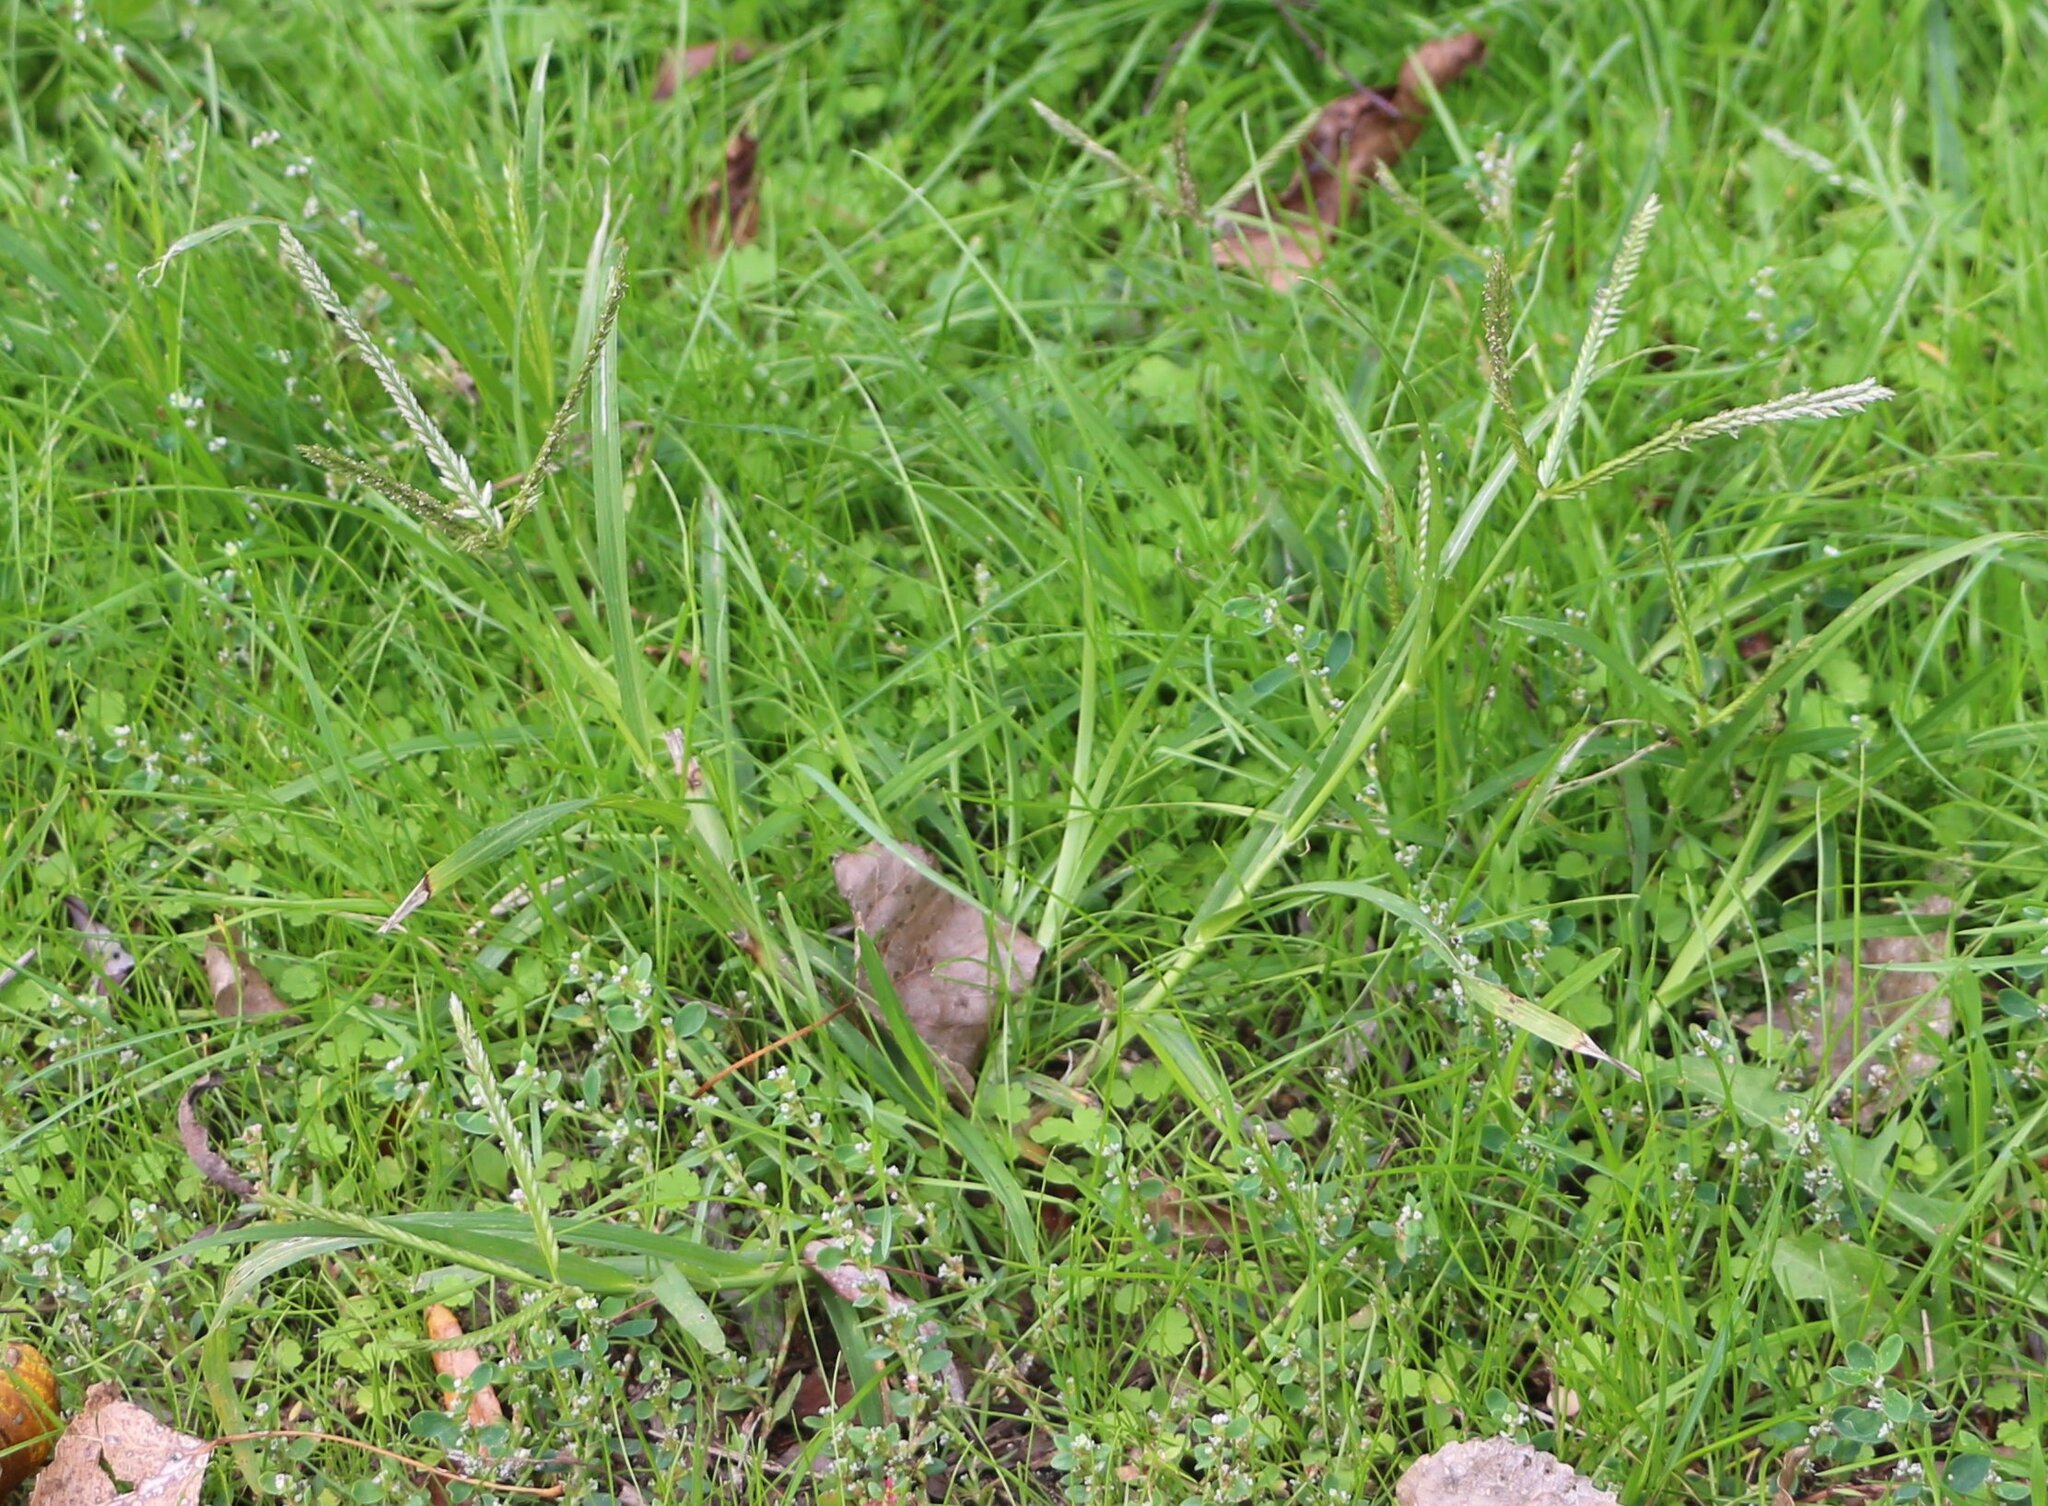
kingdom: Plantae
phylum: Tracheophyta
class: Liliopsida
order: Poales
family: Poaceae
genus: Eleusine
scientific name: Eleusine indica
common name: Yard-grass
